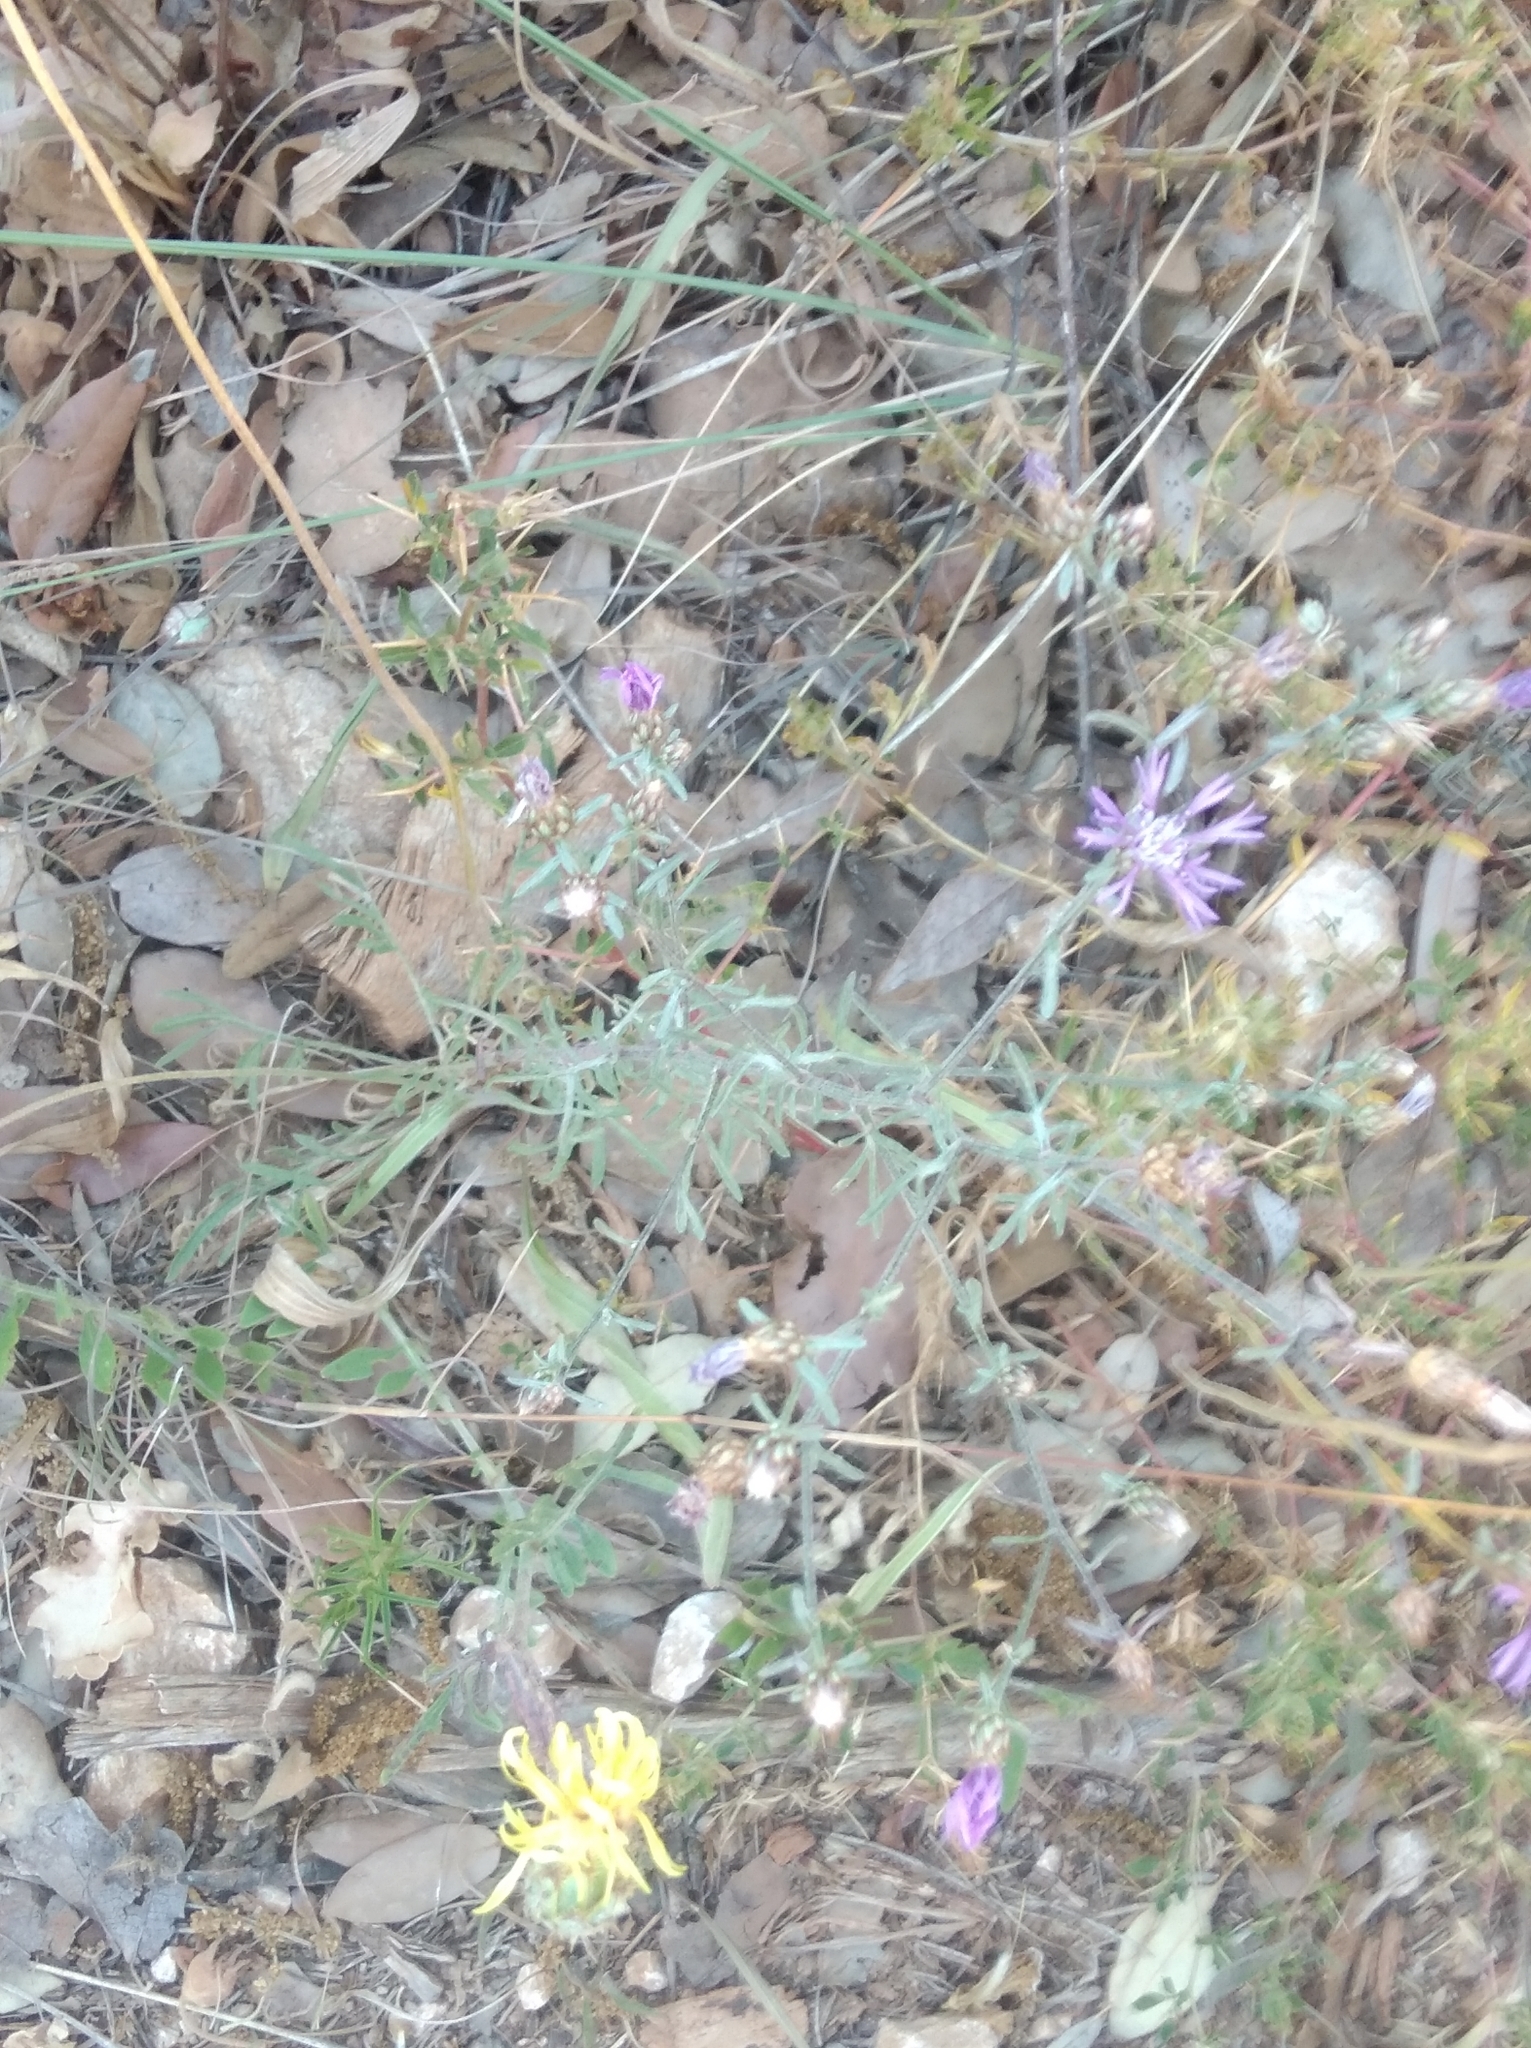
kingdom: Plantae
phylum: Tracheophyta
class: Magnoliopsida
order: Asterales
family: Asteraceae
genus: Centaurea
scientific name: Centaurea stoebe
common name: Spotted knapweed
